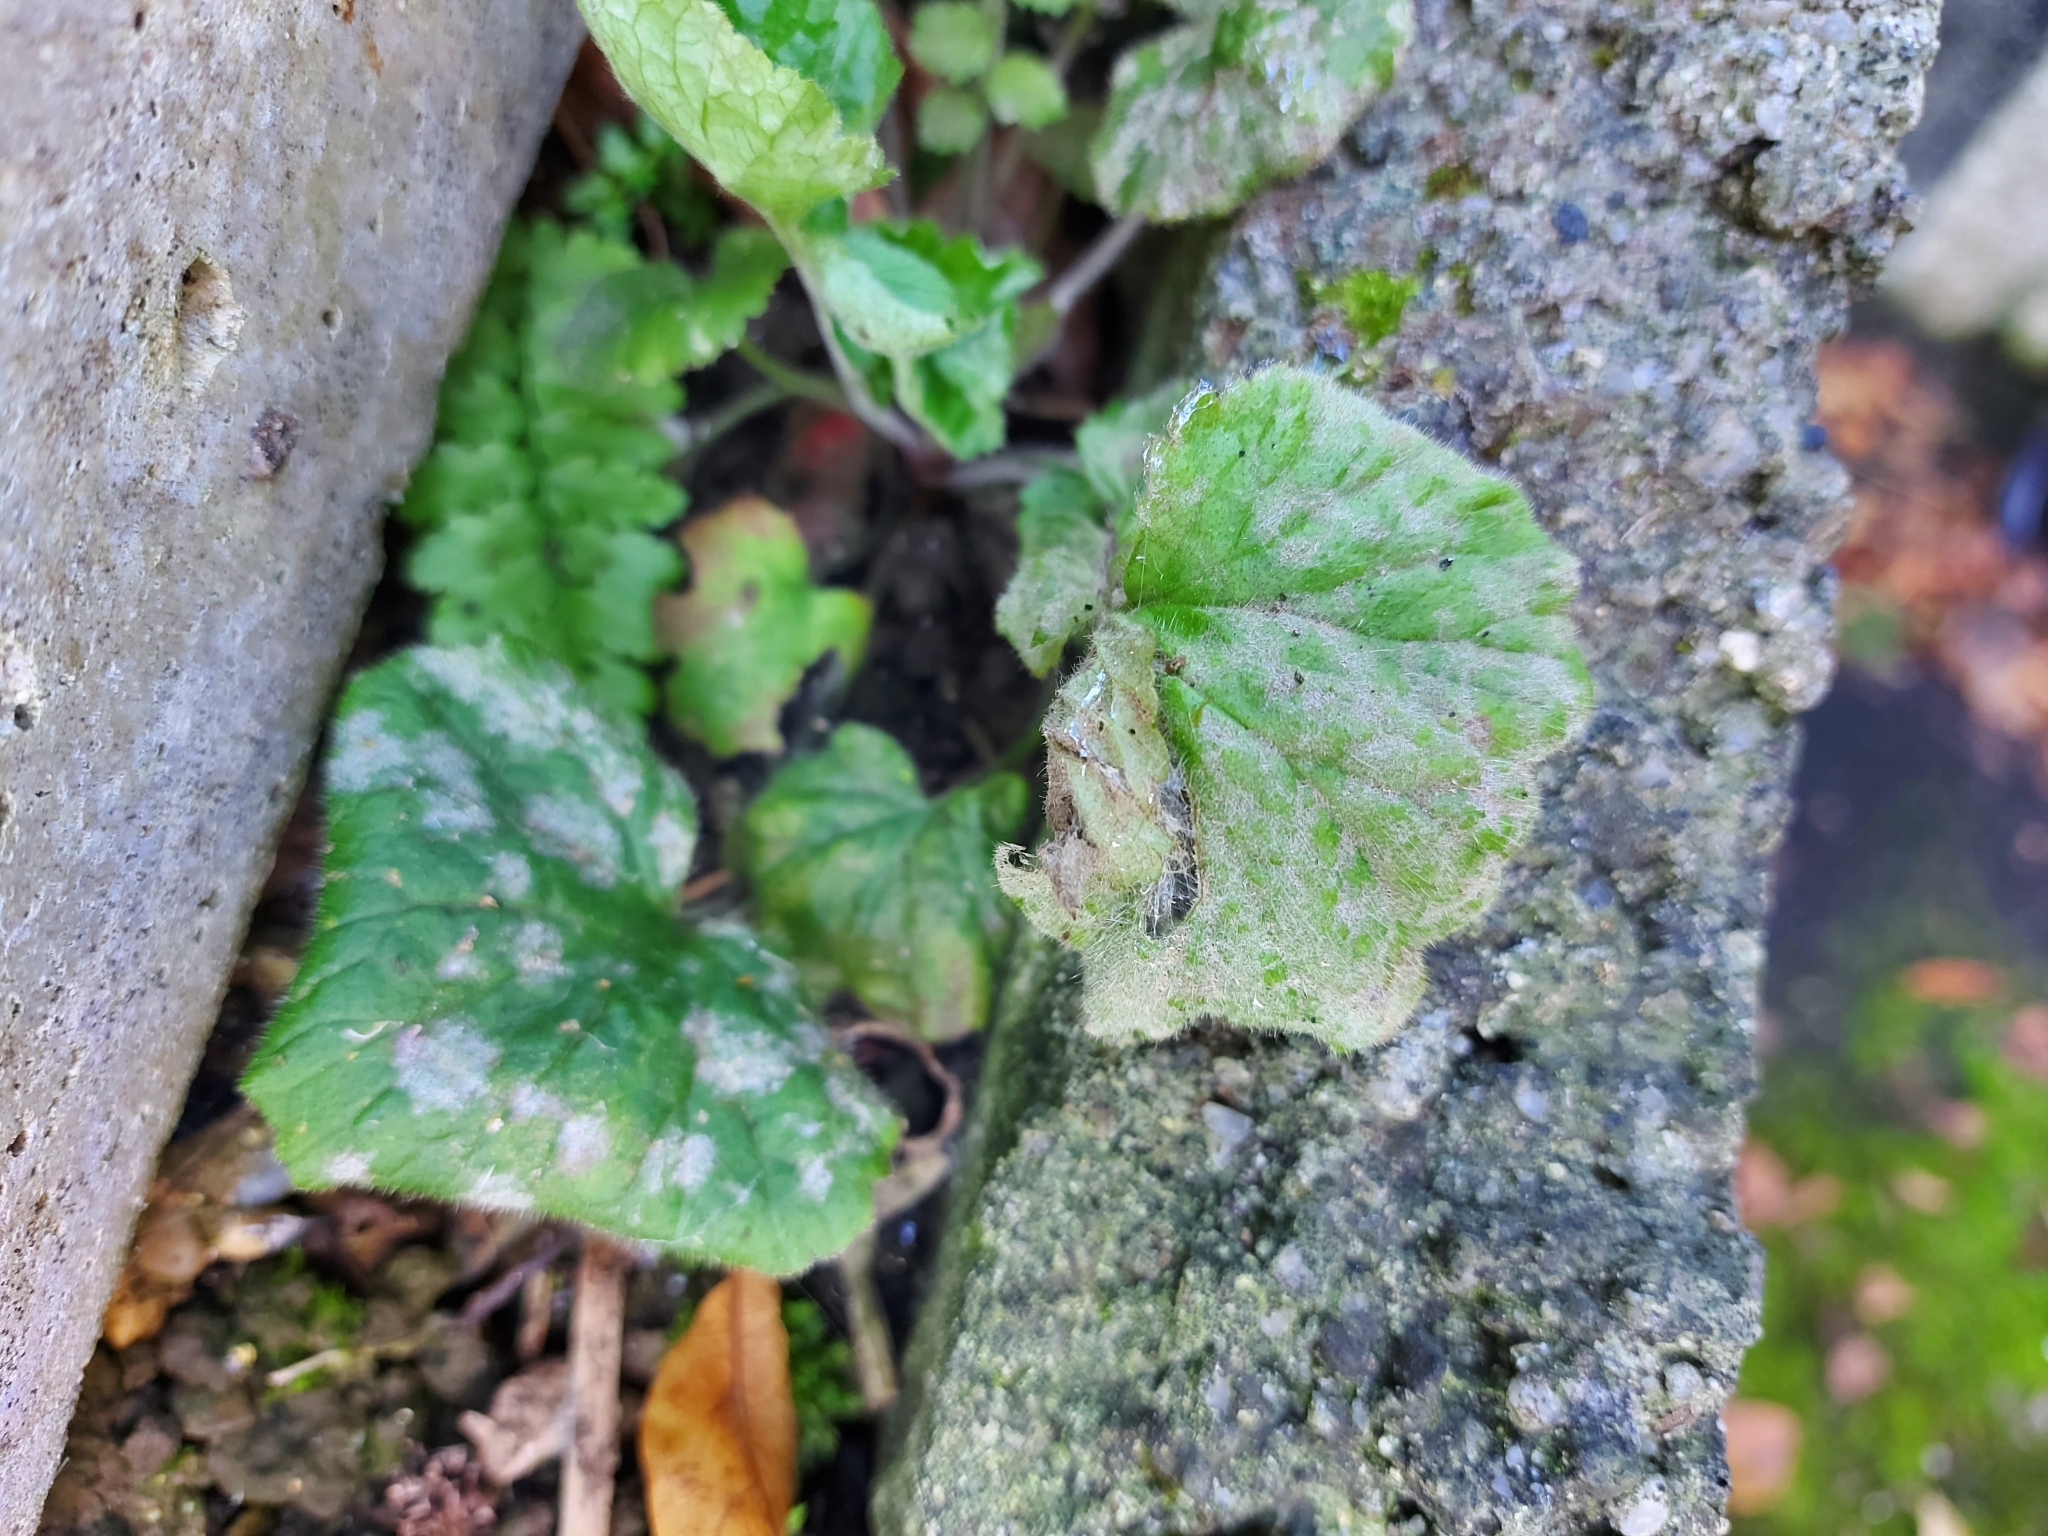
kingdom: Fungi
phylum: Ascomycota
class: Leotiomycetes
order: Helotiales
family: Erysiphaceae
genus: Podosphaera
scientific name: Podosphaera aphanis
